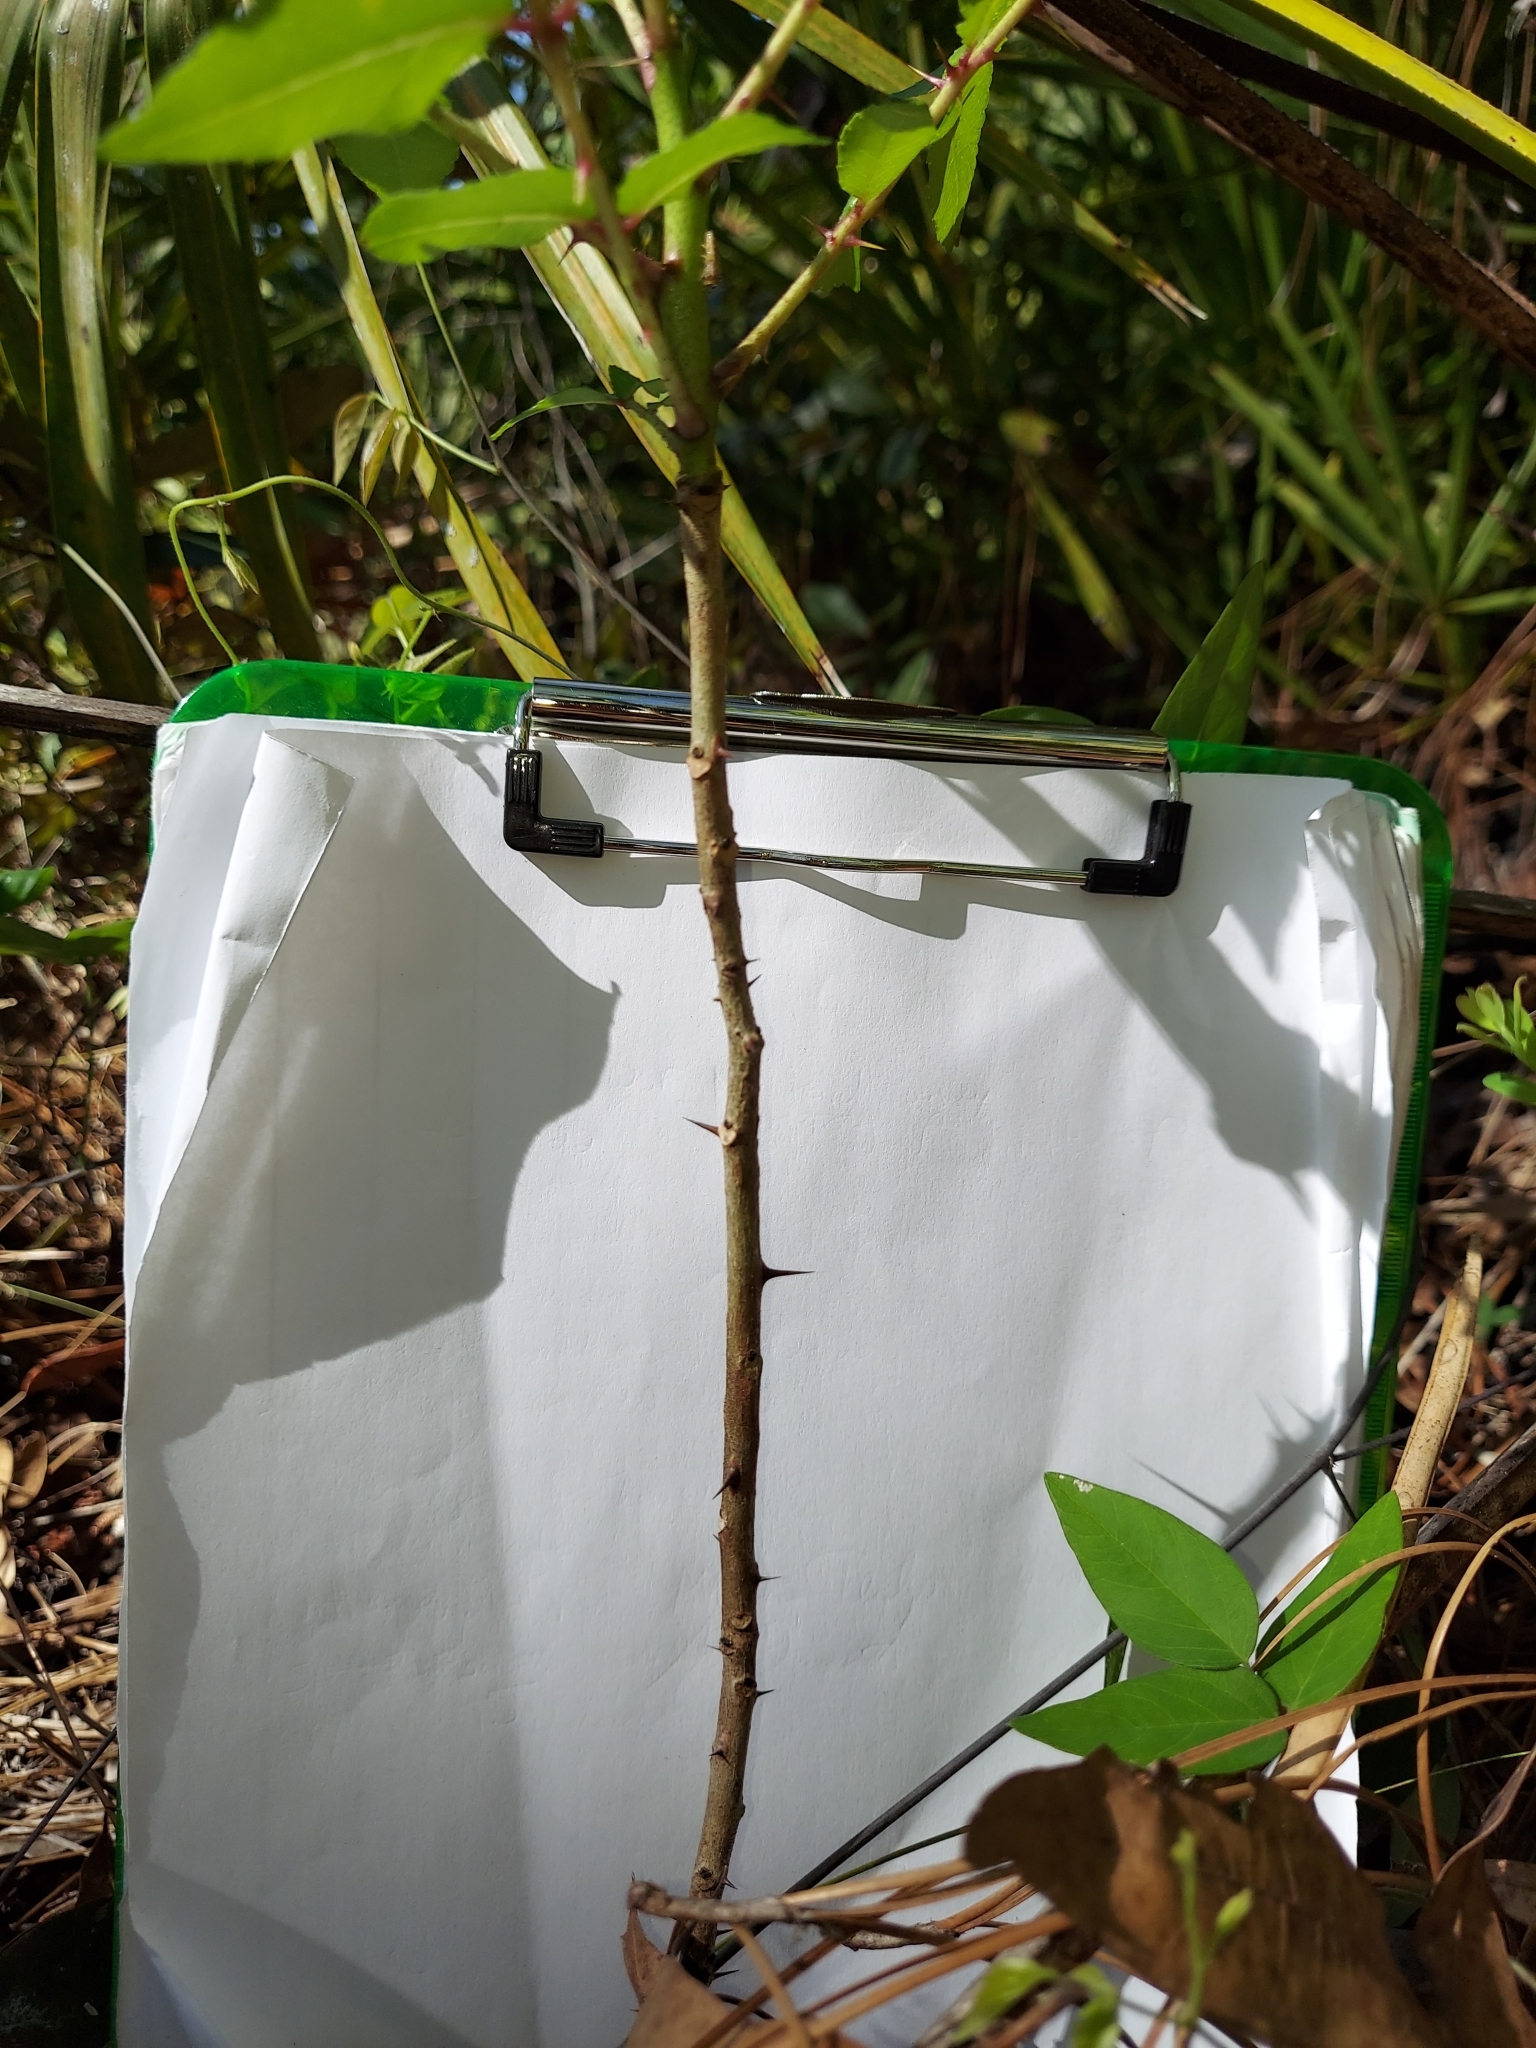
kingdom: Plantae
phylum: Tracheophyta
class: Magnoliopsida
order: Sapindales
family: Rutaceae
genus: Zanthoxylum
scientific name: Zanthoxylum clava-herculis
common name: Hercules'-club
